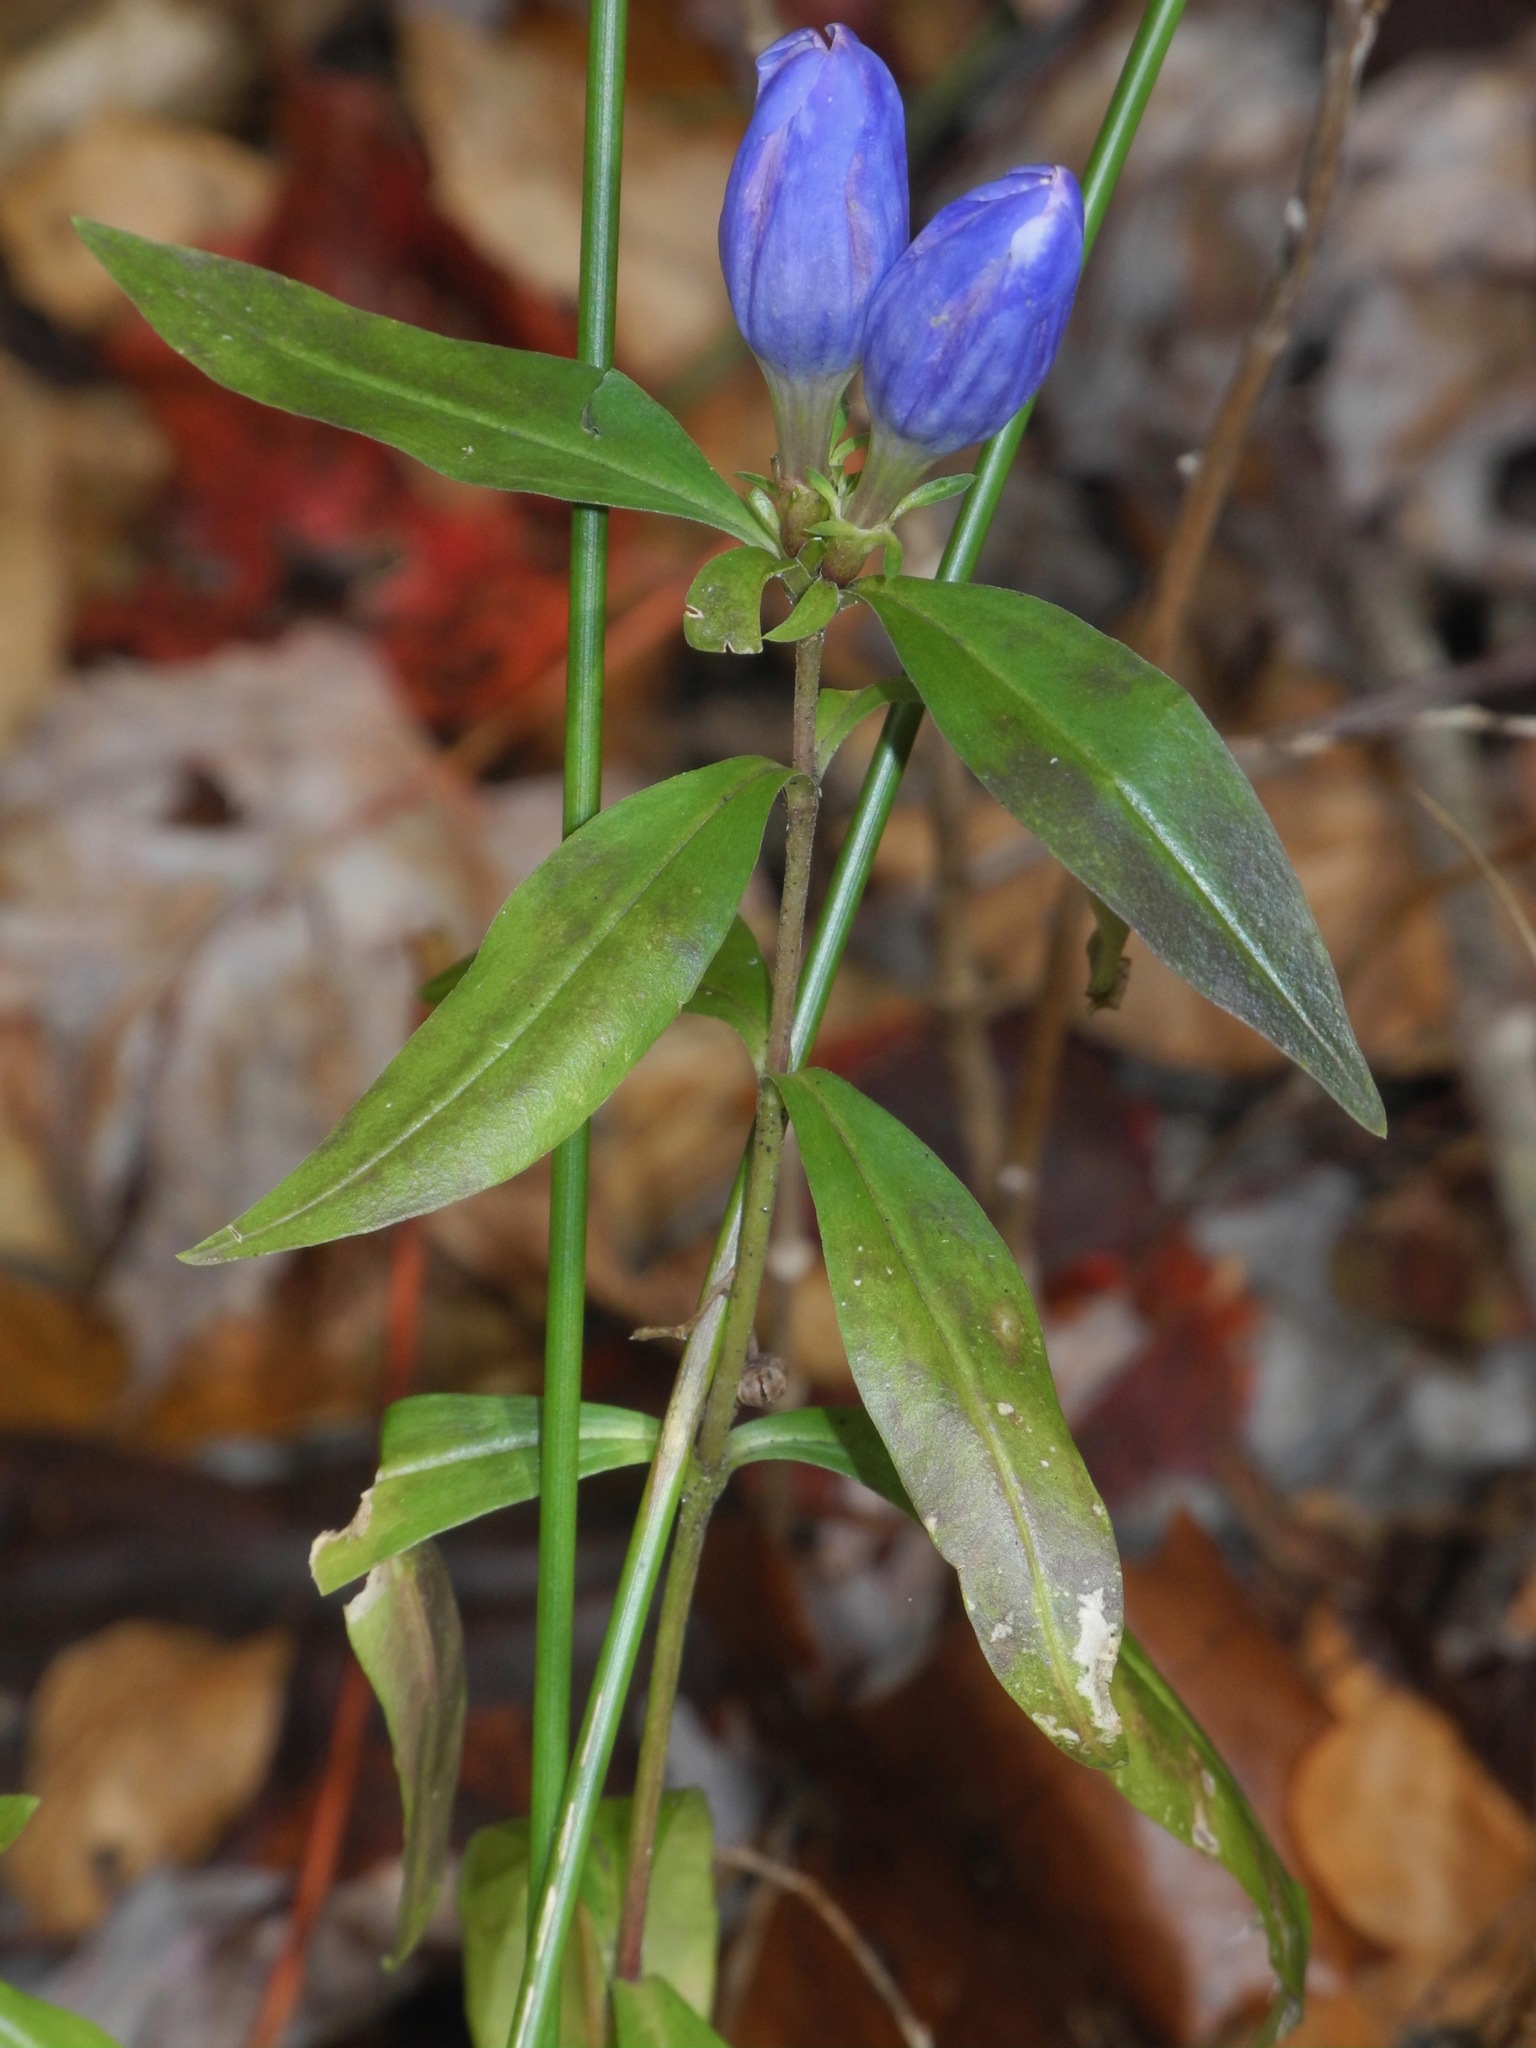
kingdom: Plantae
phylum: Tracheophyta
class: Magnoliopsida
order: Gentianales
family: Gentianaceae
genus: Gentiana
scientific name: Gentiana saponaria
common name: Soapwort gentian
